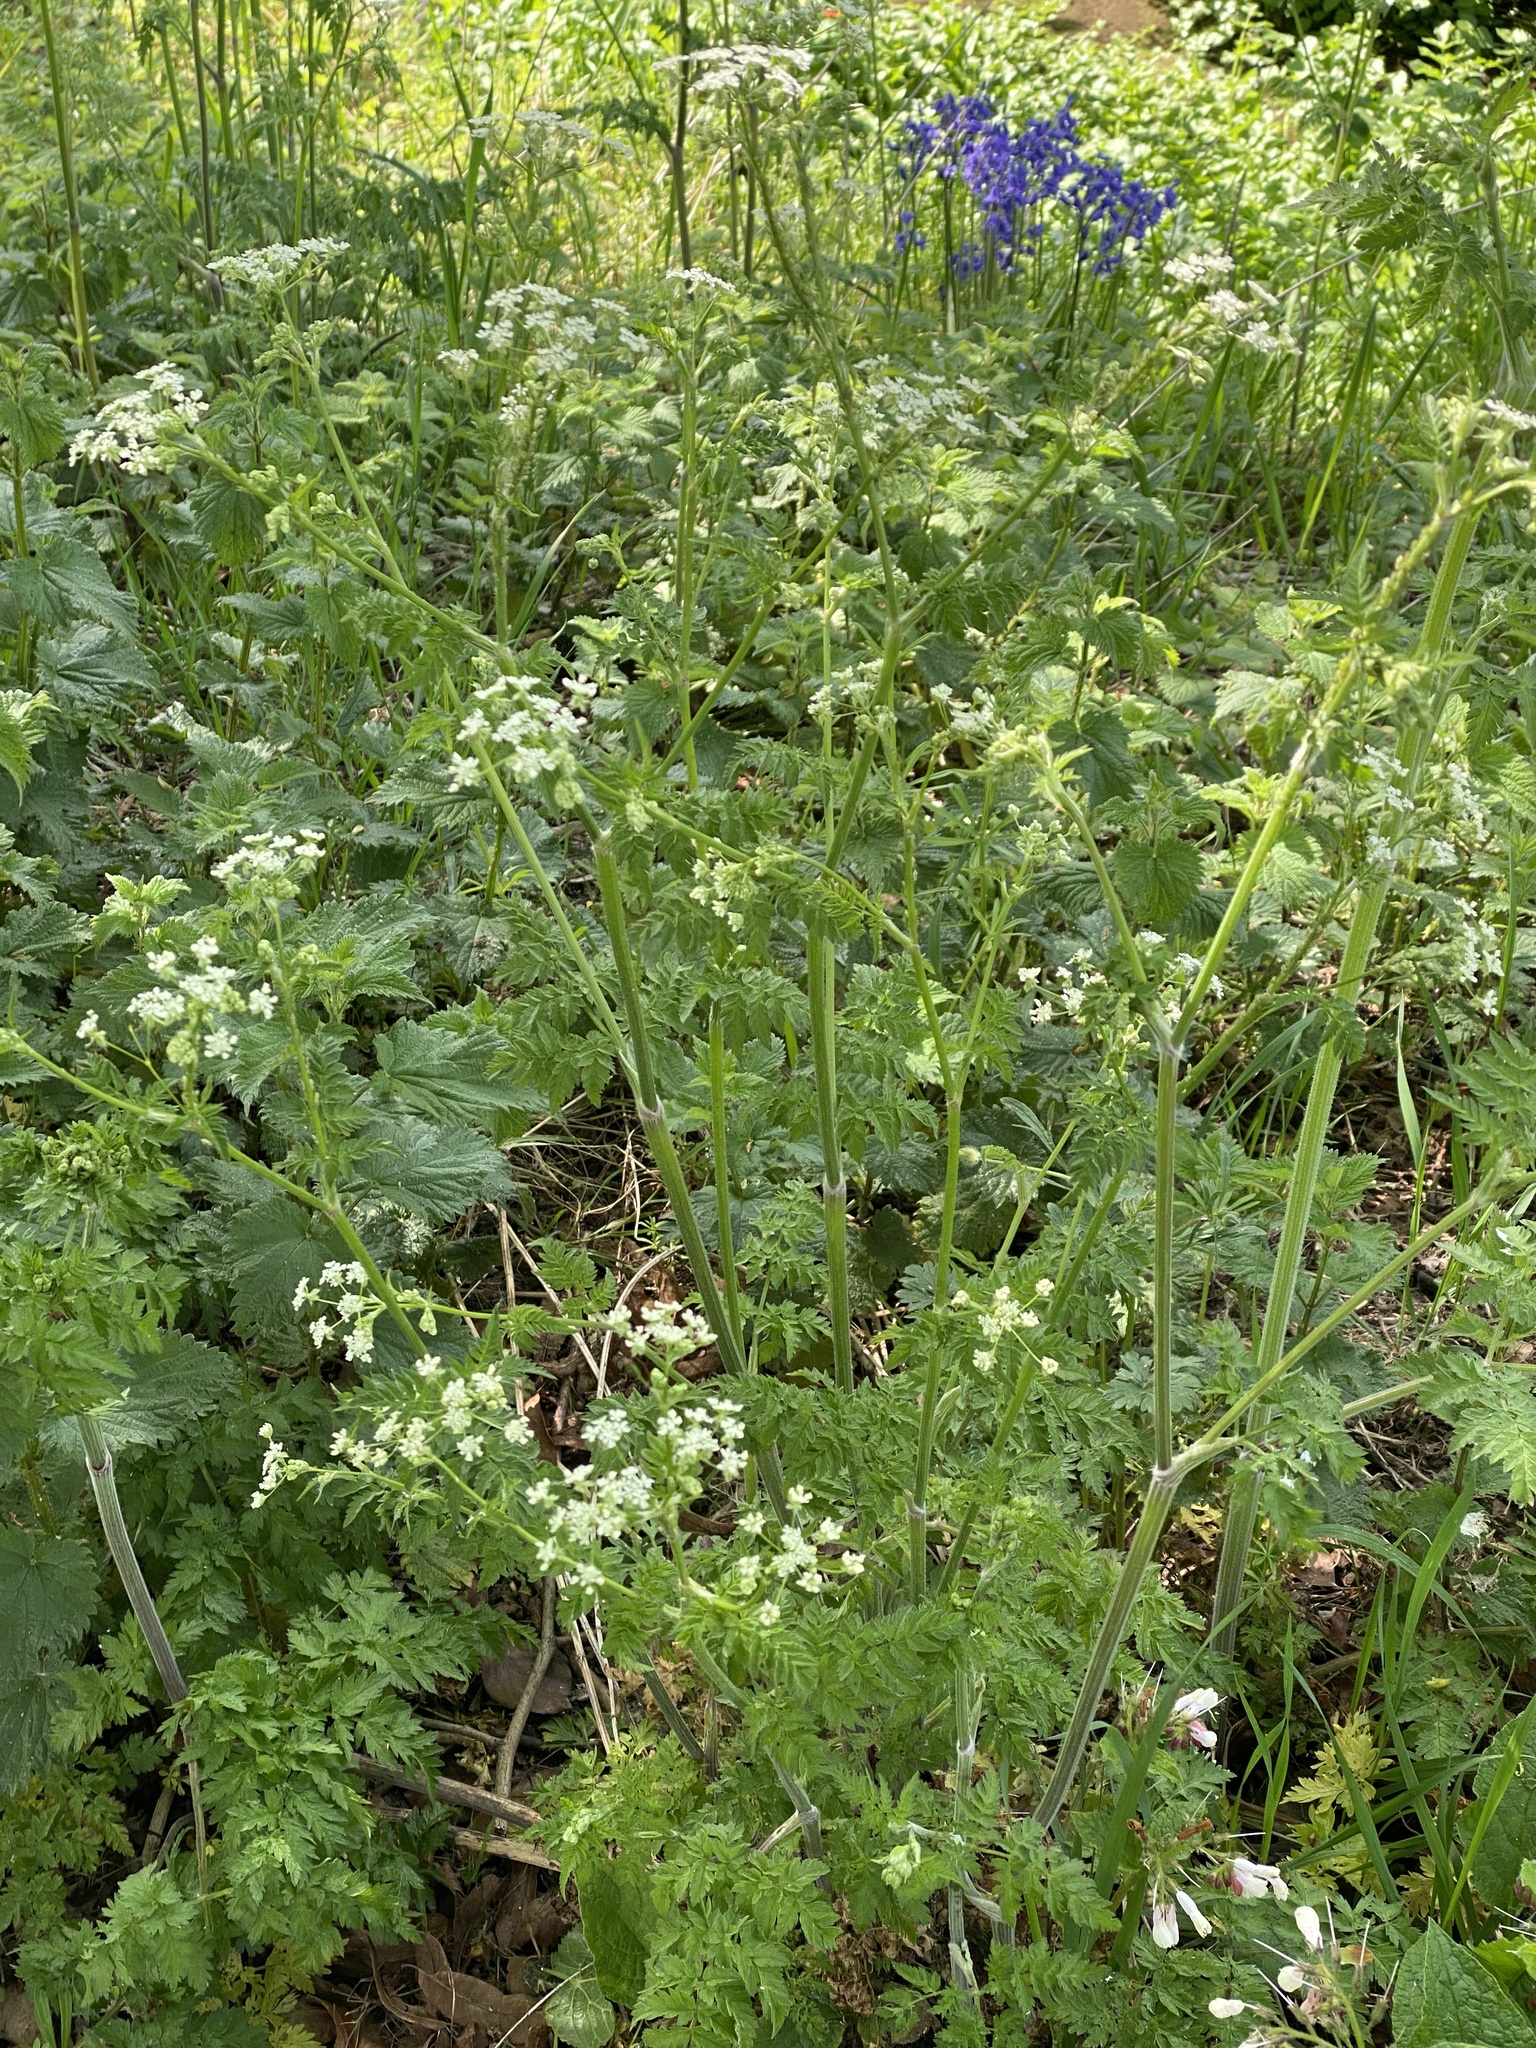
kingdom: Plantae
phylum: Tracheophyta
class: Magnoliopsida
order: Apiales
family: Apiaceae
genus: Anthriscus
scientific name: Anthriscus sylvestris
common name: Cow parsley
